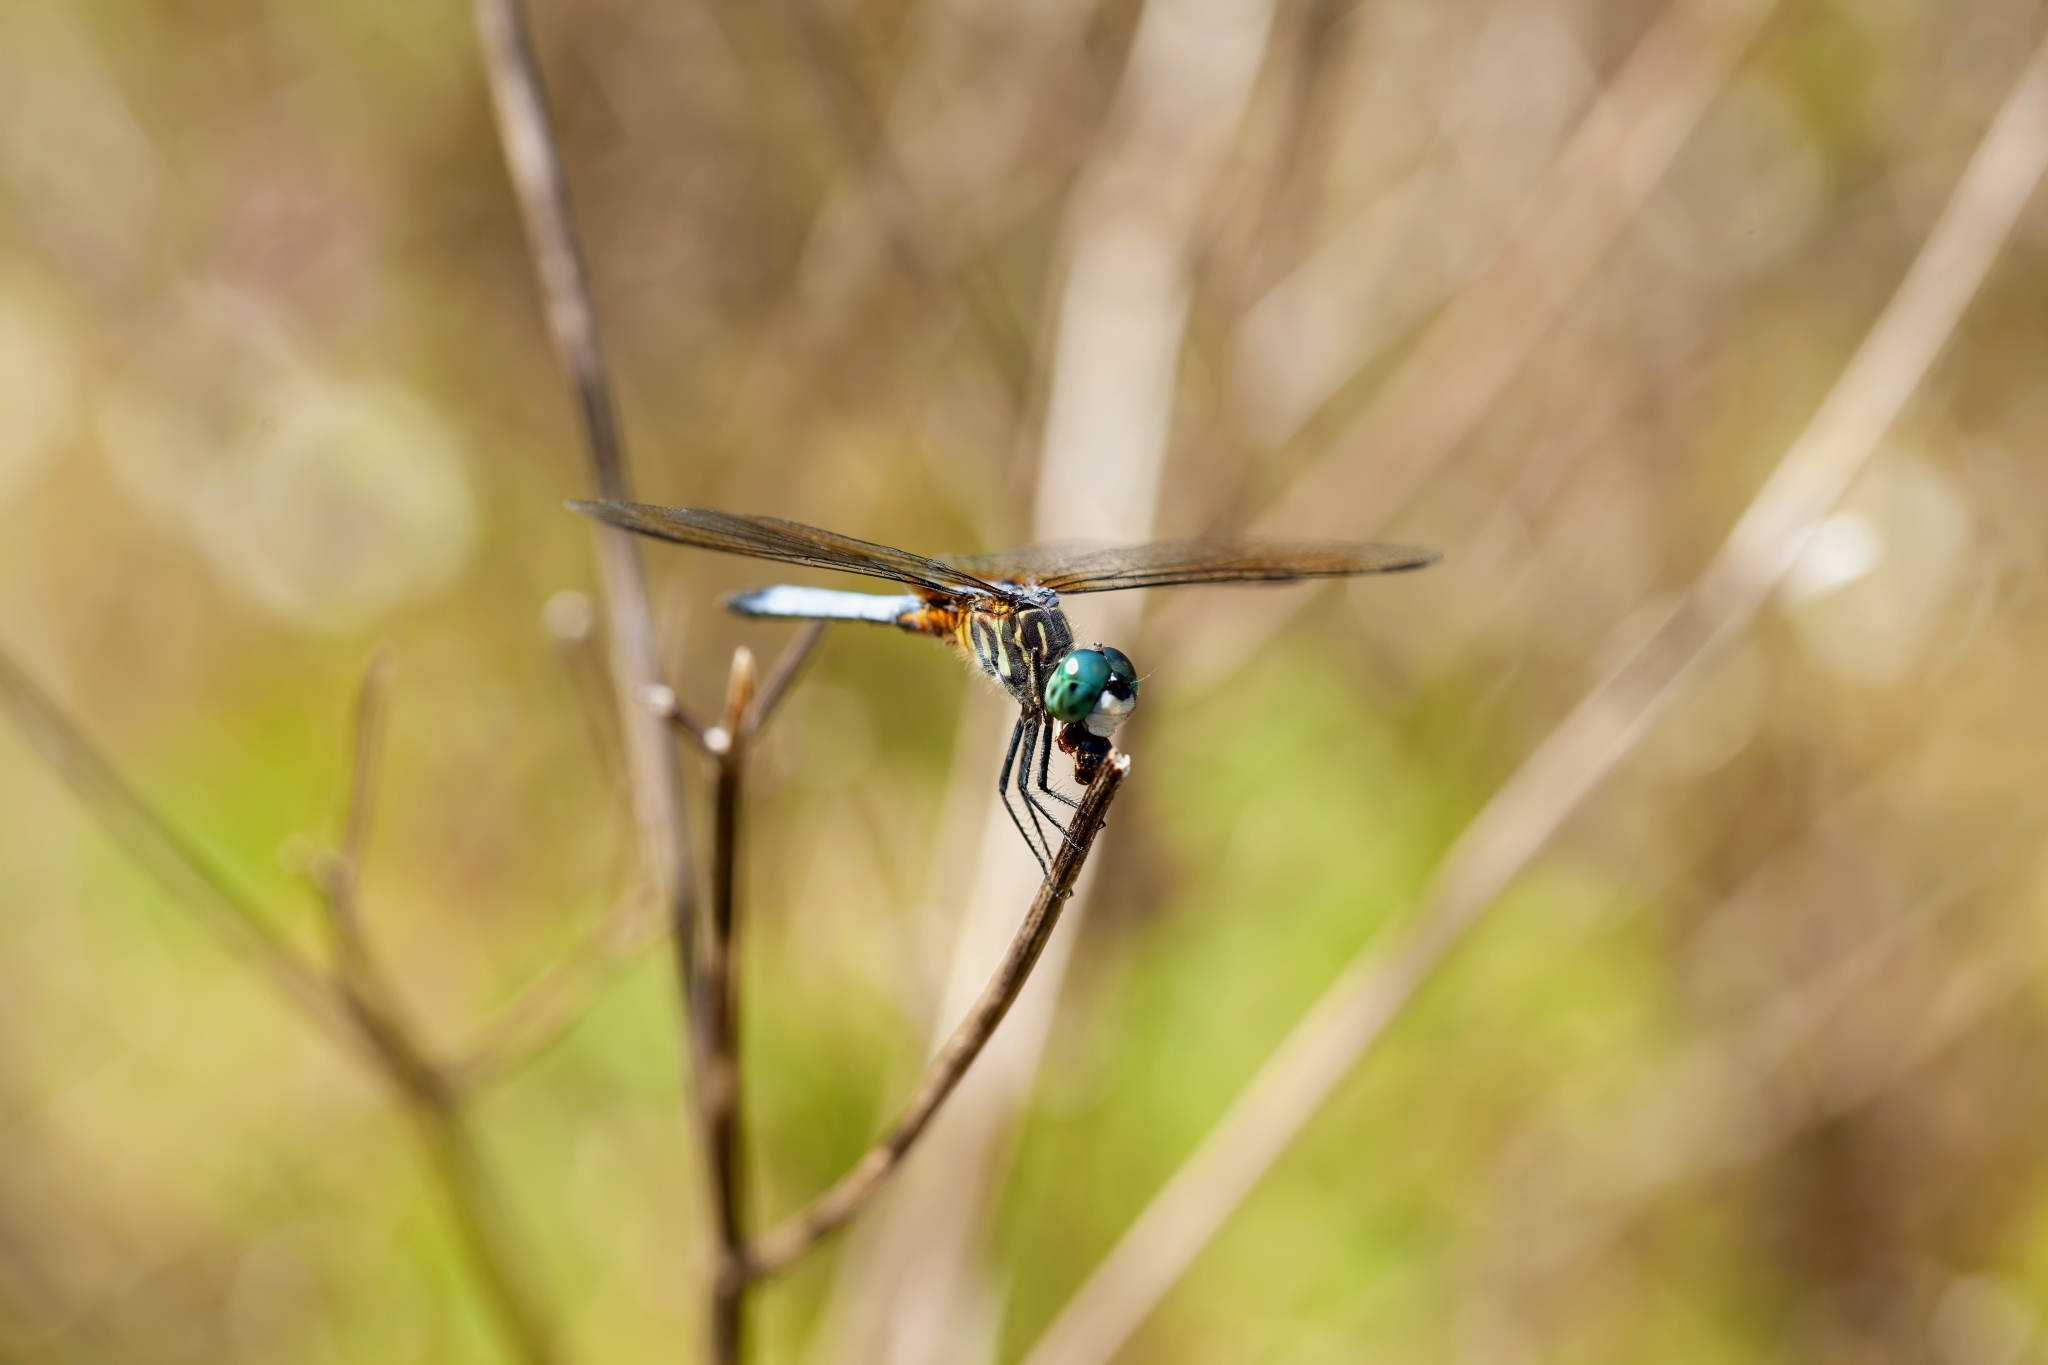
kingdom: Animalia
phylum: Arthropoda
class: Insecta
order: Odonata
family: Libellulidae
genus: Pachydiplax
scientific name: Pachydiplax longipennis
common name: Blue dasher
